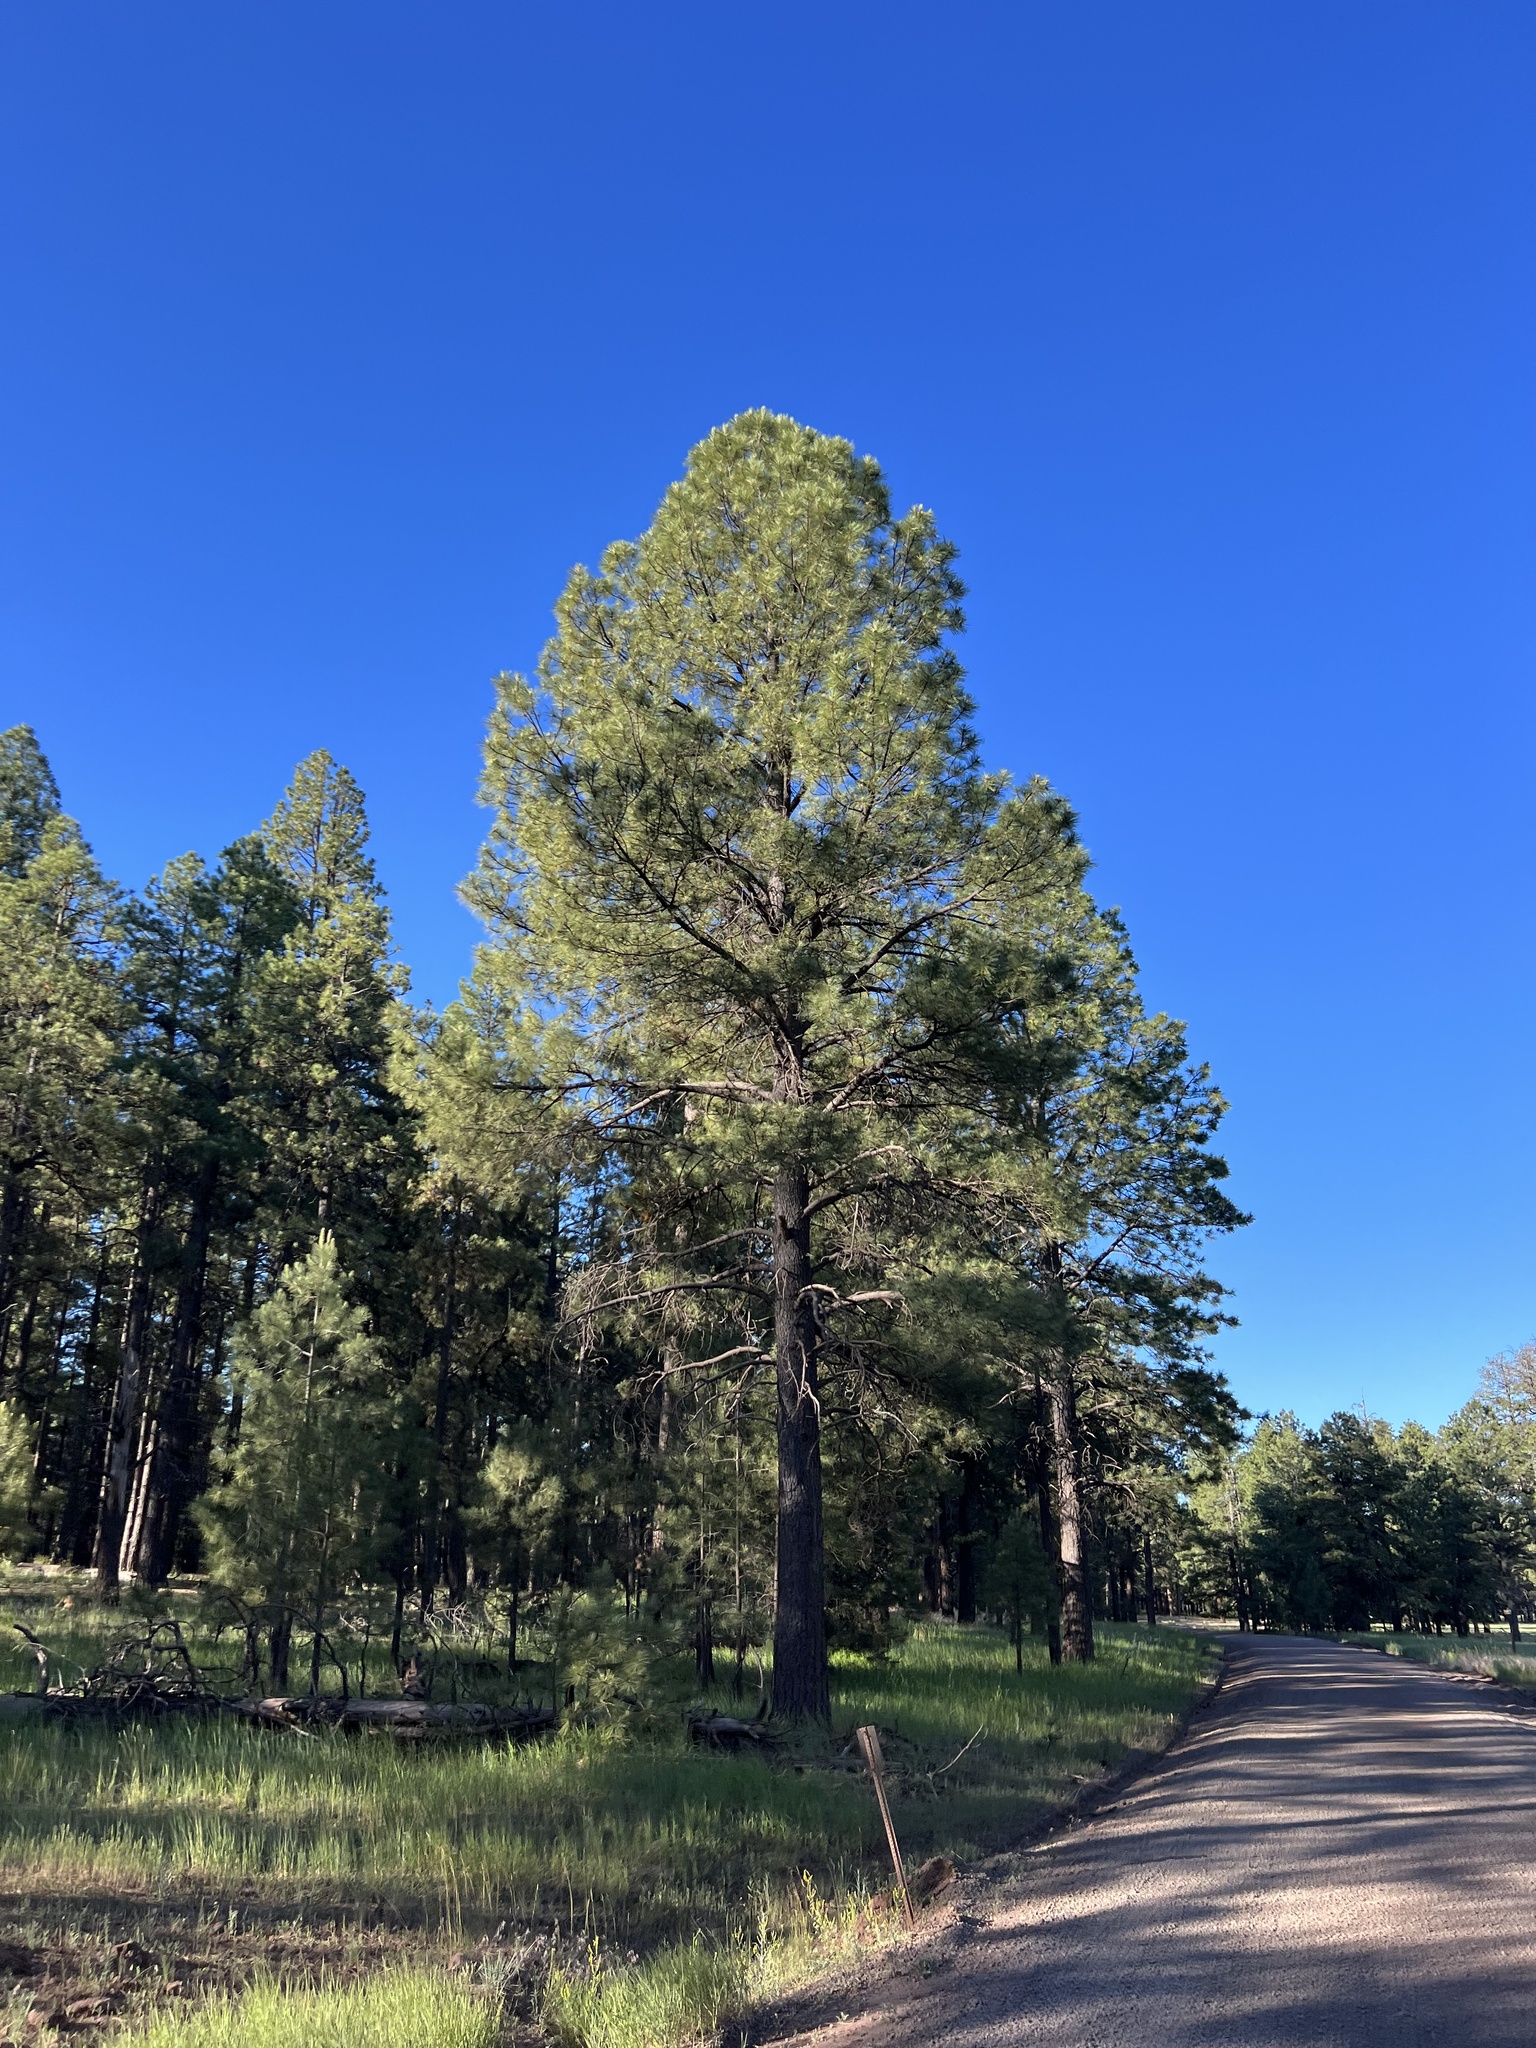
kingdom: Plantae
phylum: Tracheophyta
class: Pinopsida
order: Pinales
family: Pinaceae
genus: Pinus
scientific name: Pinus ponderosa
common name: Western yellow-pine
